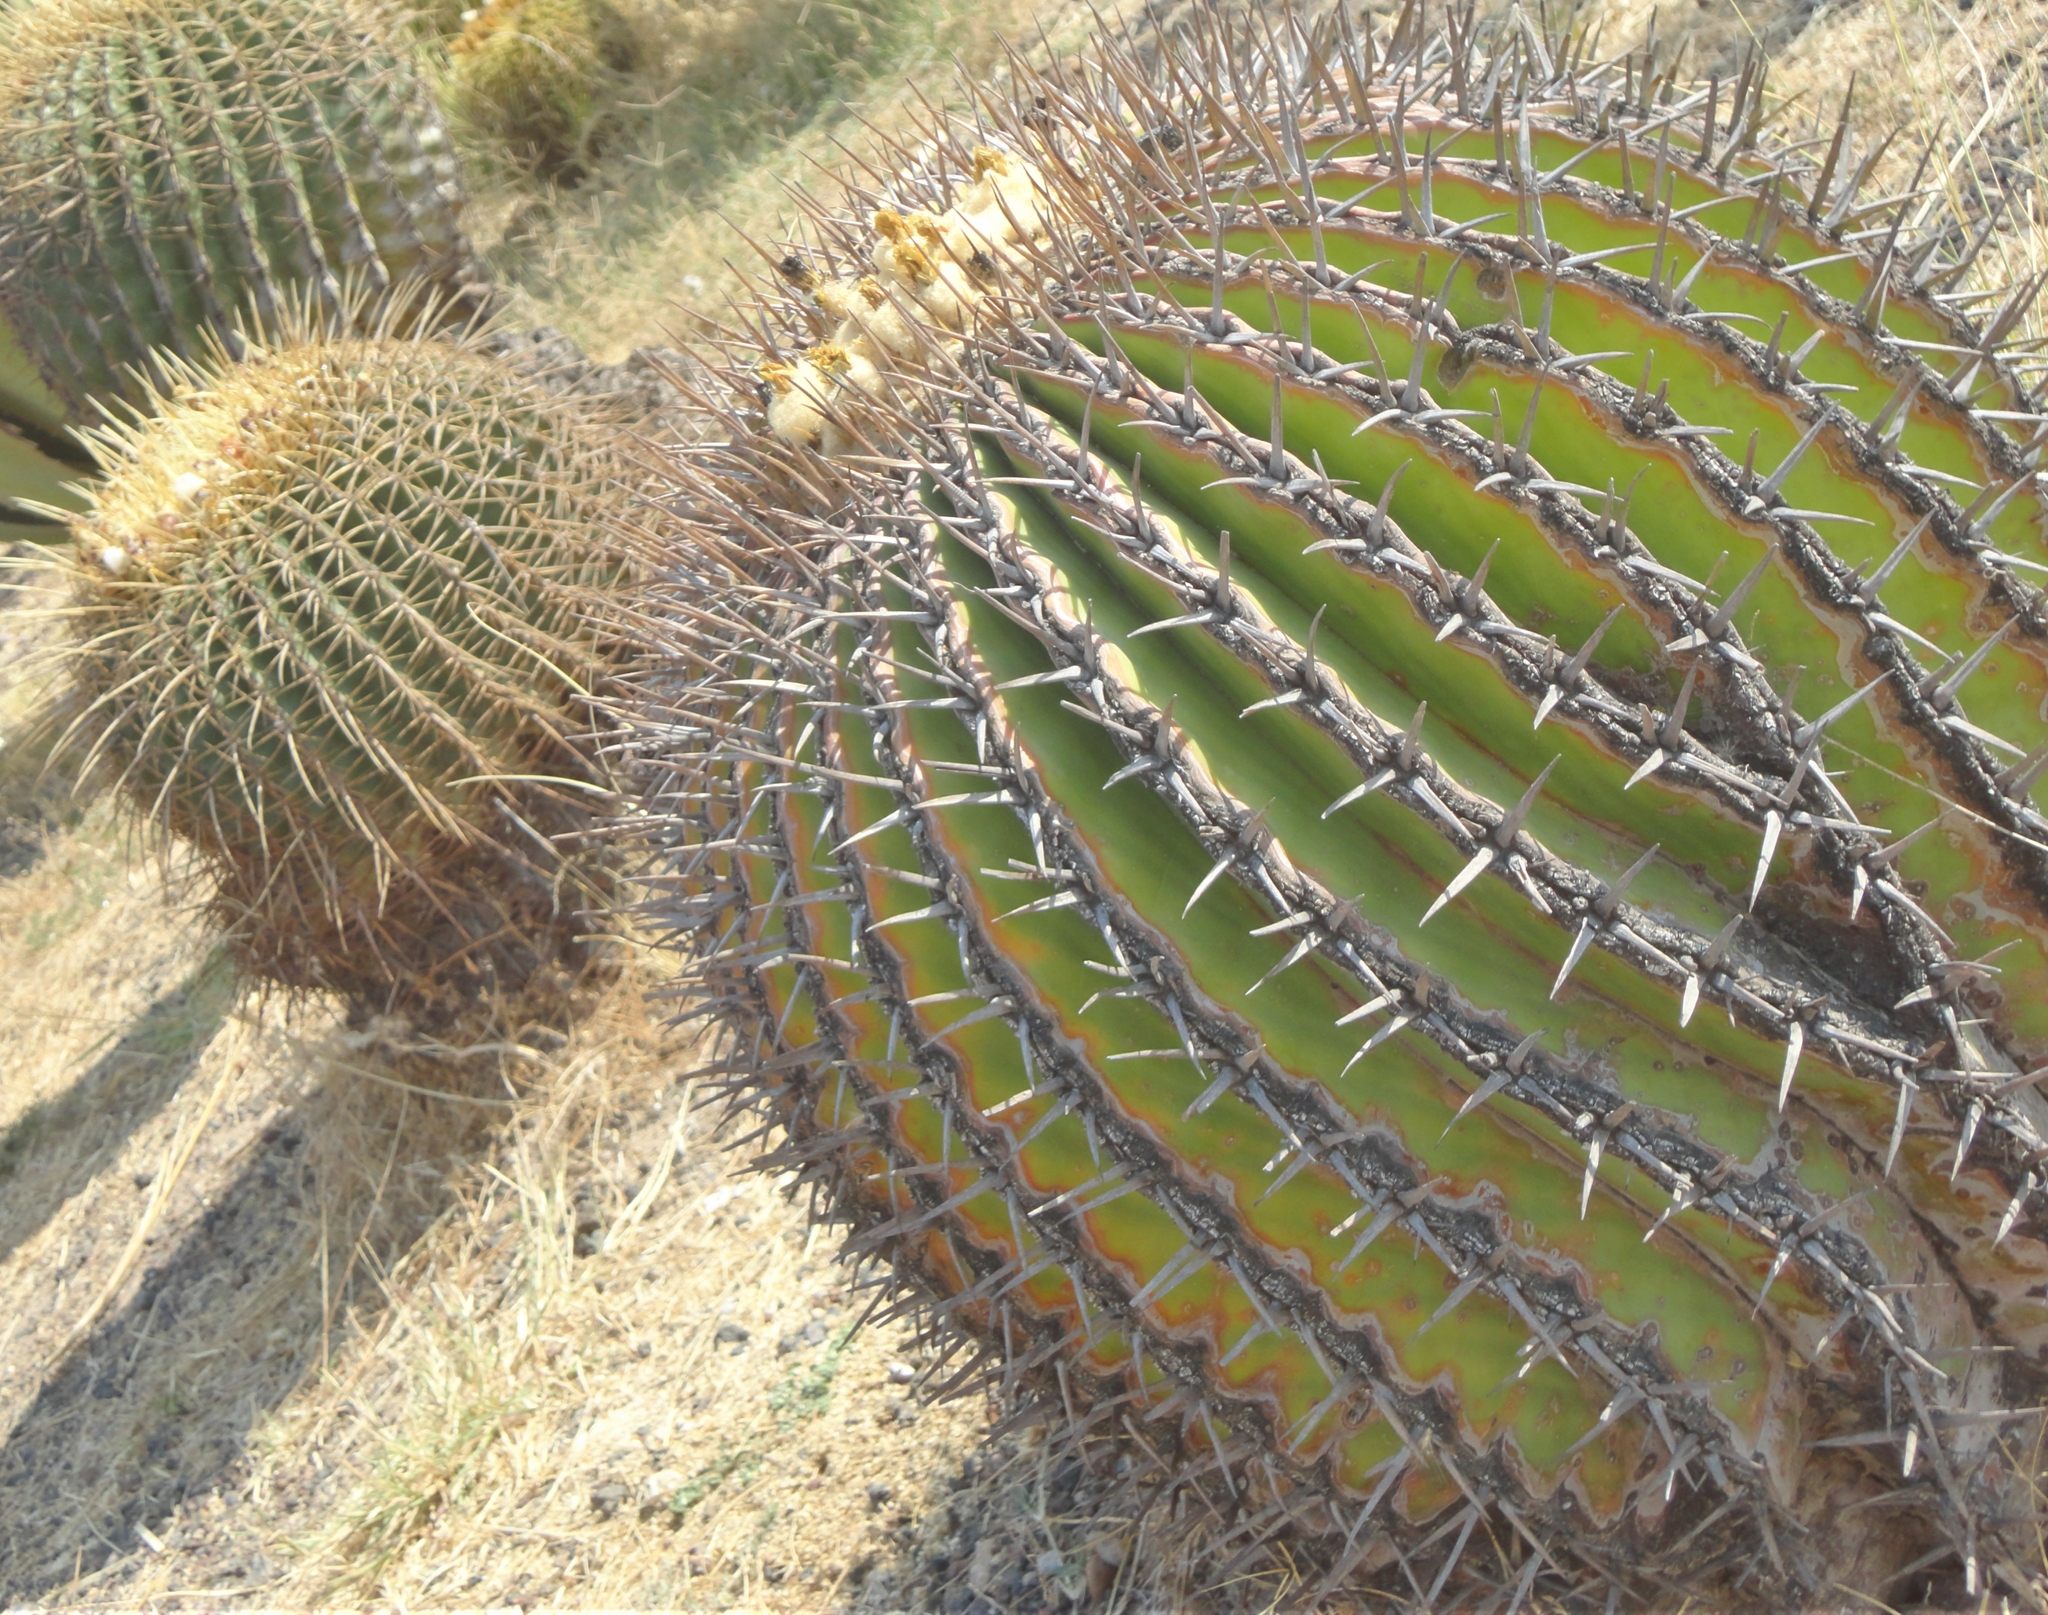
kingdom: Plantae
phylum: Tracheophyta
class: Magnoliopsida
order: Caryophyllales
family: Cactaceae
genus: Echinocactus
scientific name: Echinocactus platyacanthus
